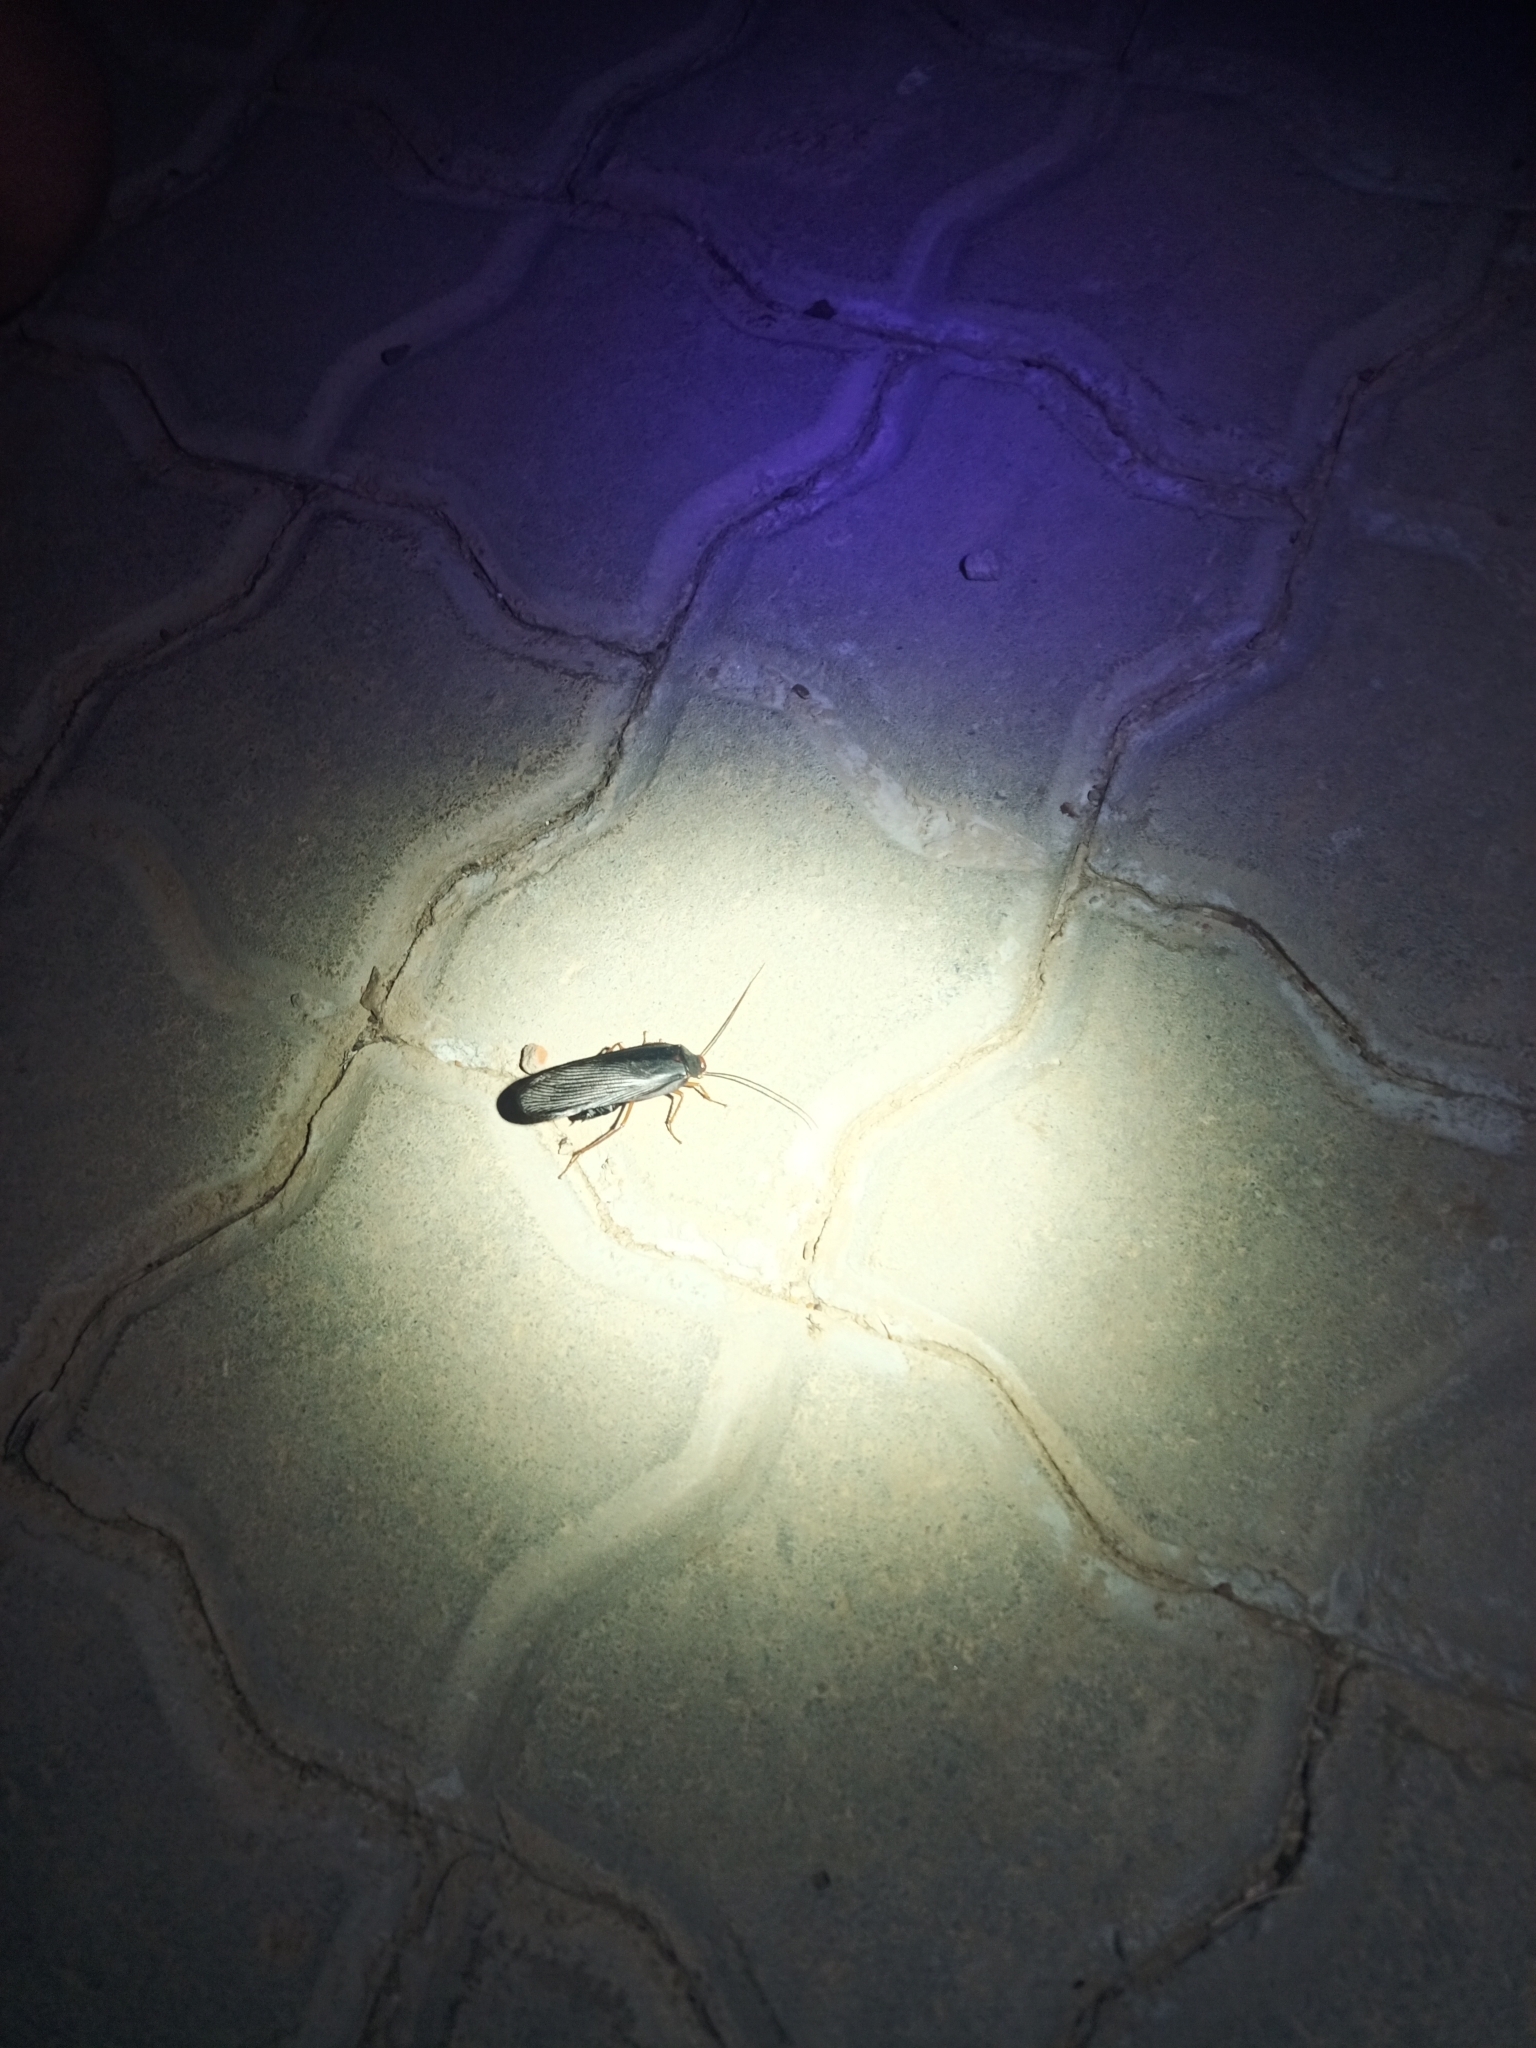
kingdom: Animalia
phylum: Arthropoda
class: Insecta
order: Blattodea
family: Blattidae
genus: Deropeltis
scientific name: Deropeltis erythrocephala
